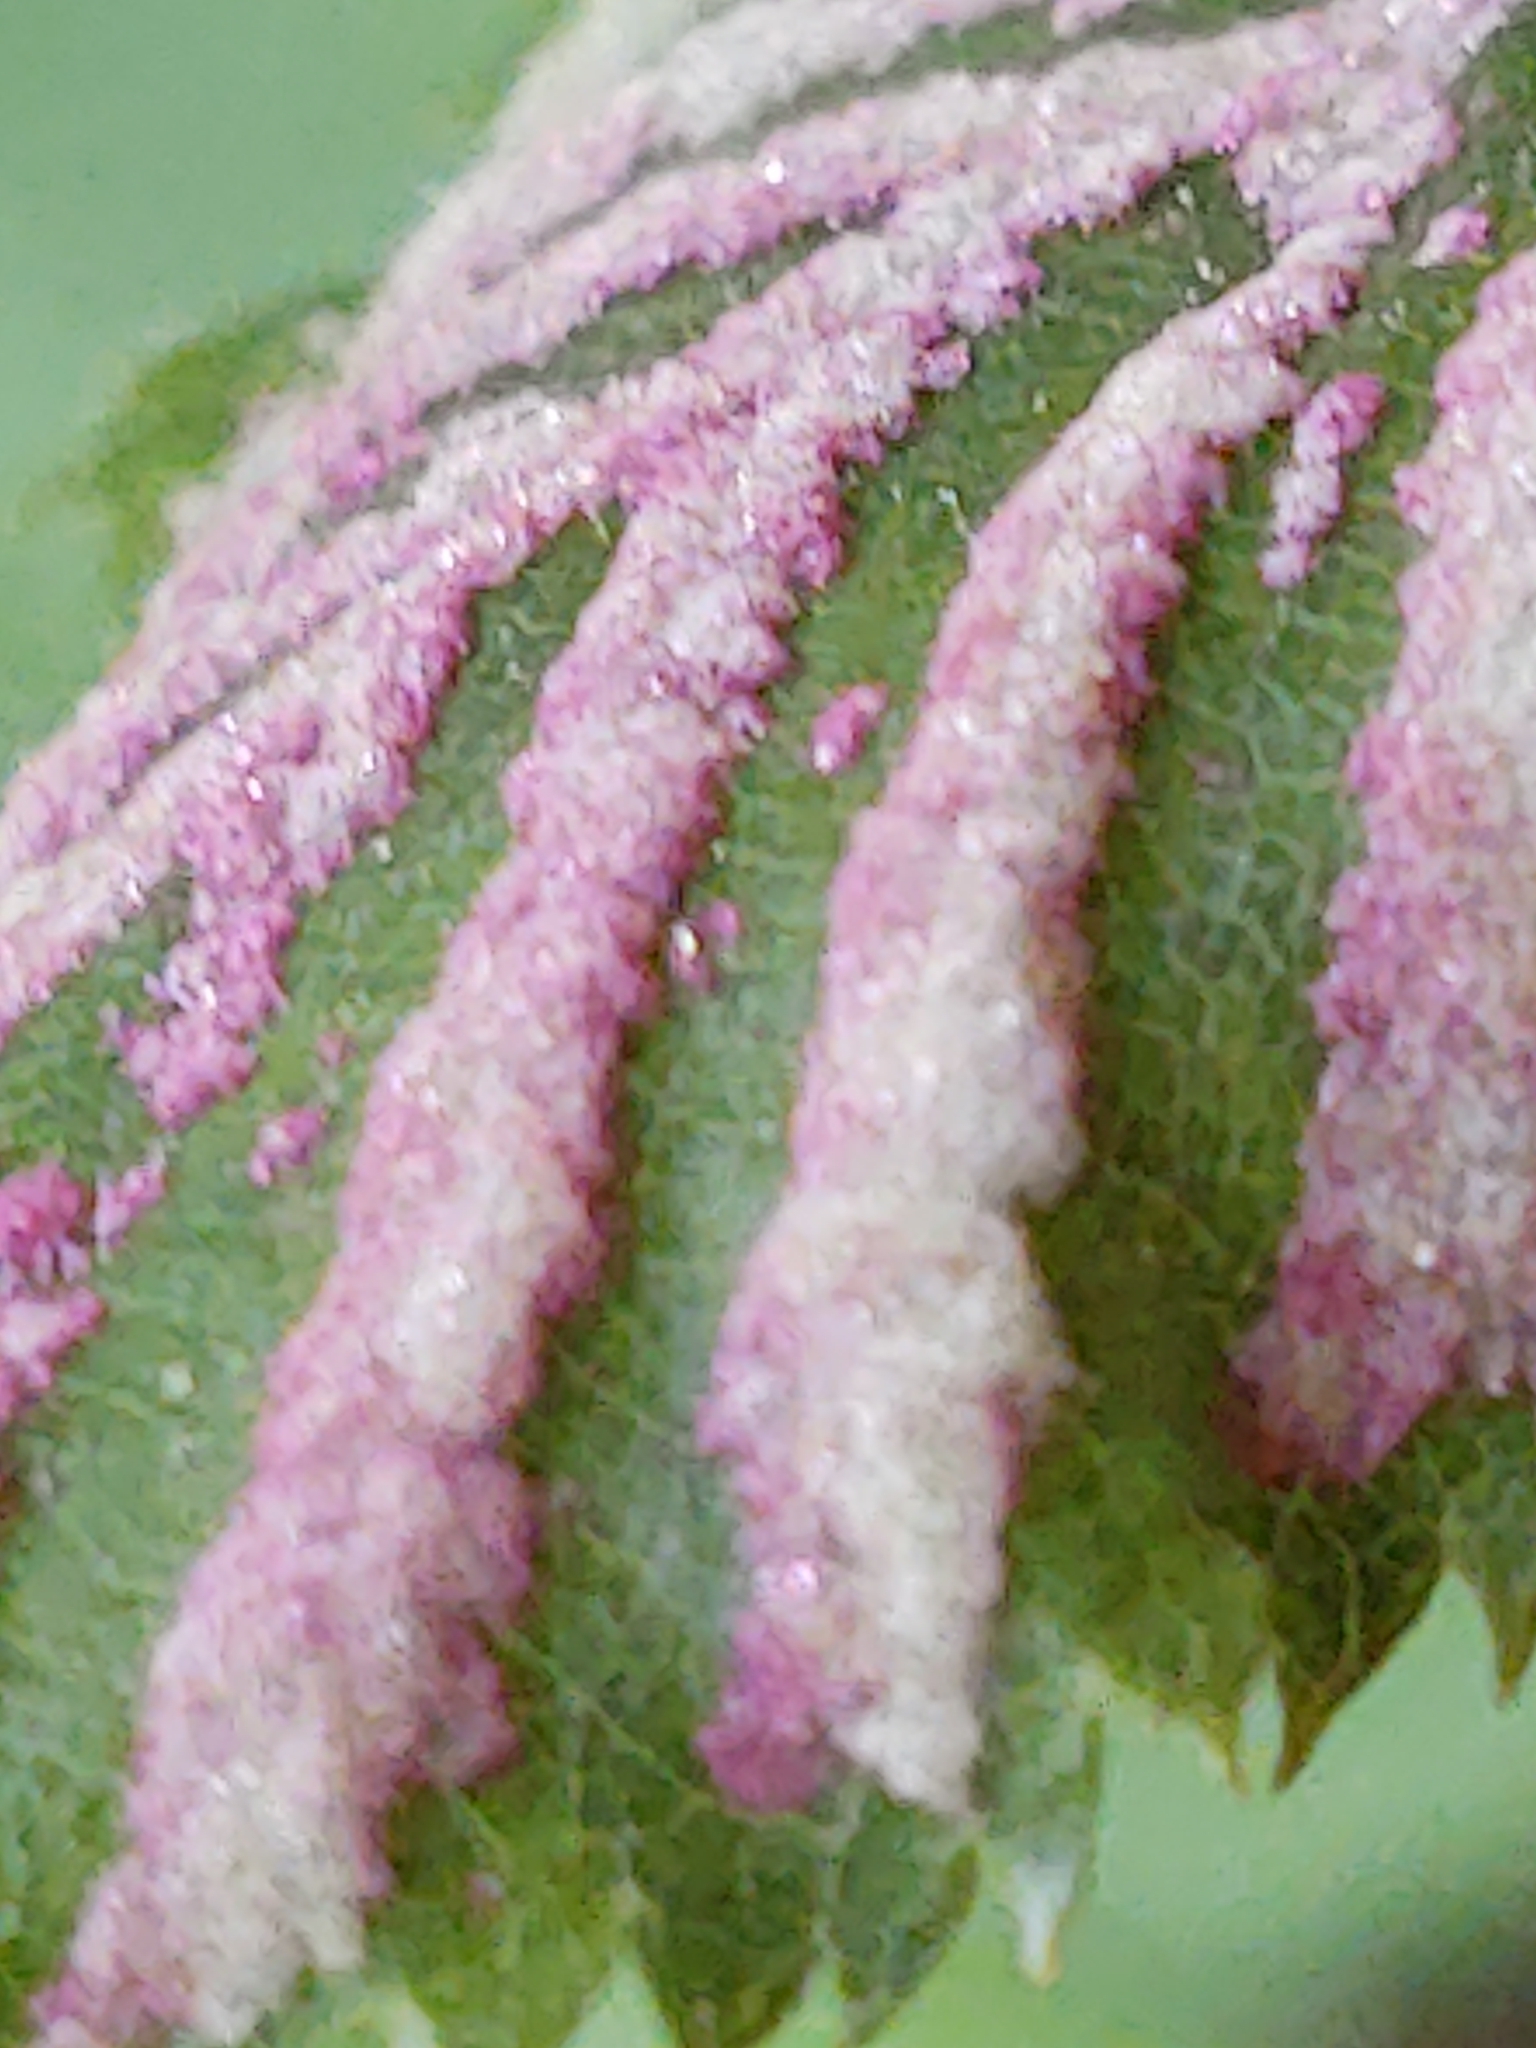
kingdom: Animalia
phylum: Arthropoda
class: Arachnida
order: Trombidiformes
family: Eriophyidae
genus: Acalitus
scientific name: Acalitus longisetosus
